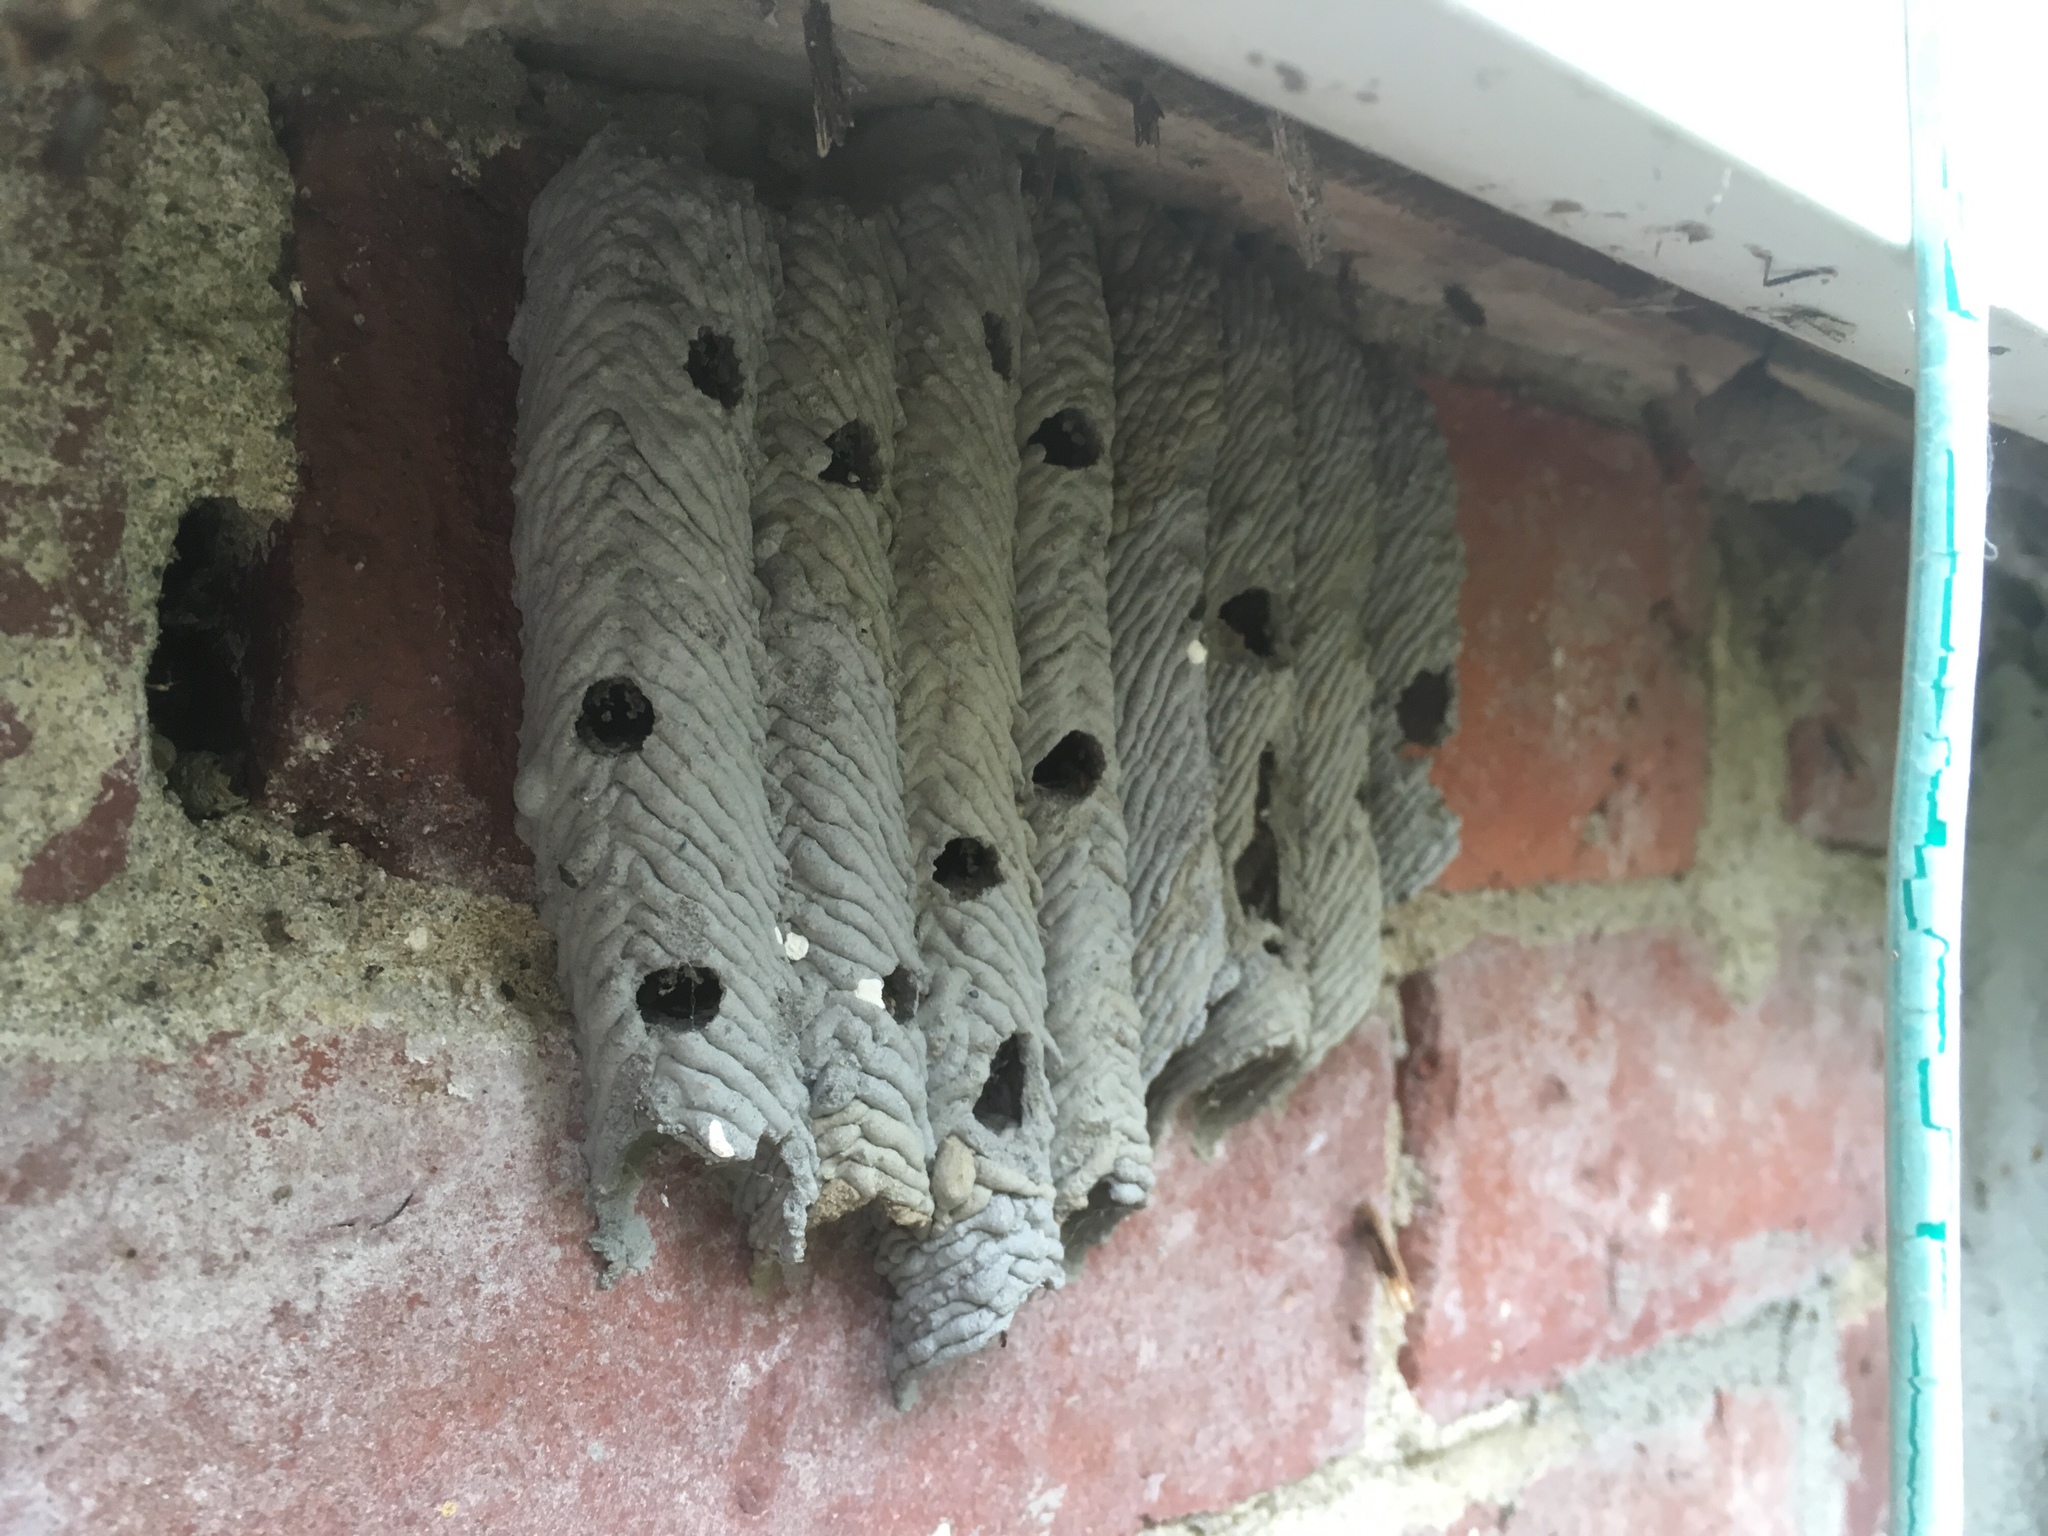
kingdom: Animalia
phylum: Arthropoda
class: Insecta
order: Hymenoptera
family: Crabronidae
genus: Trypoxylon
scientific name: Trypoxylon politum
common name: Organ-pipe mud-dauber wasp
